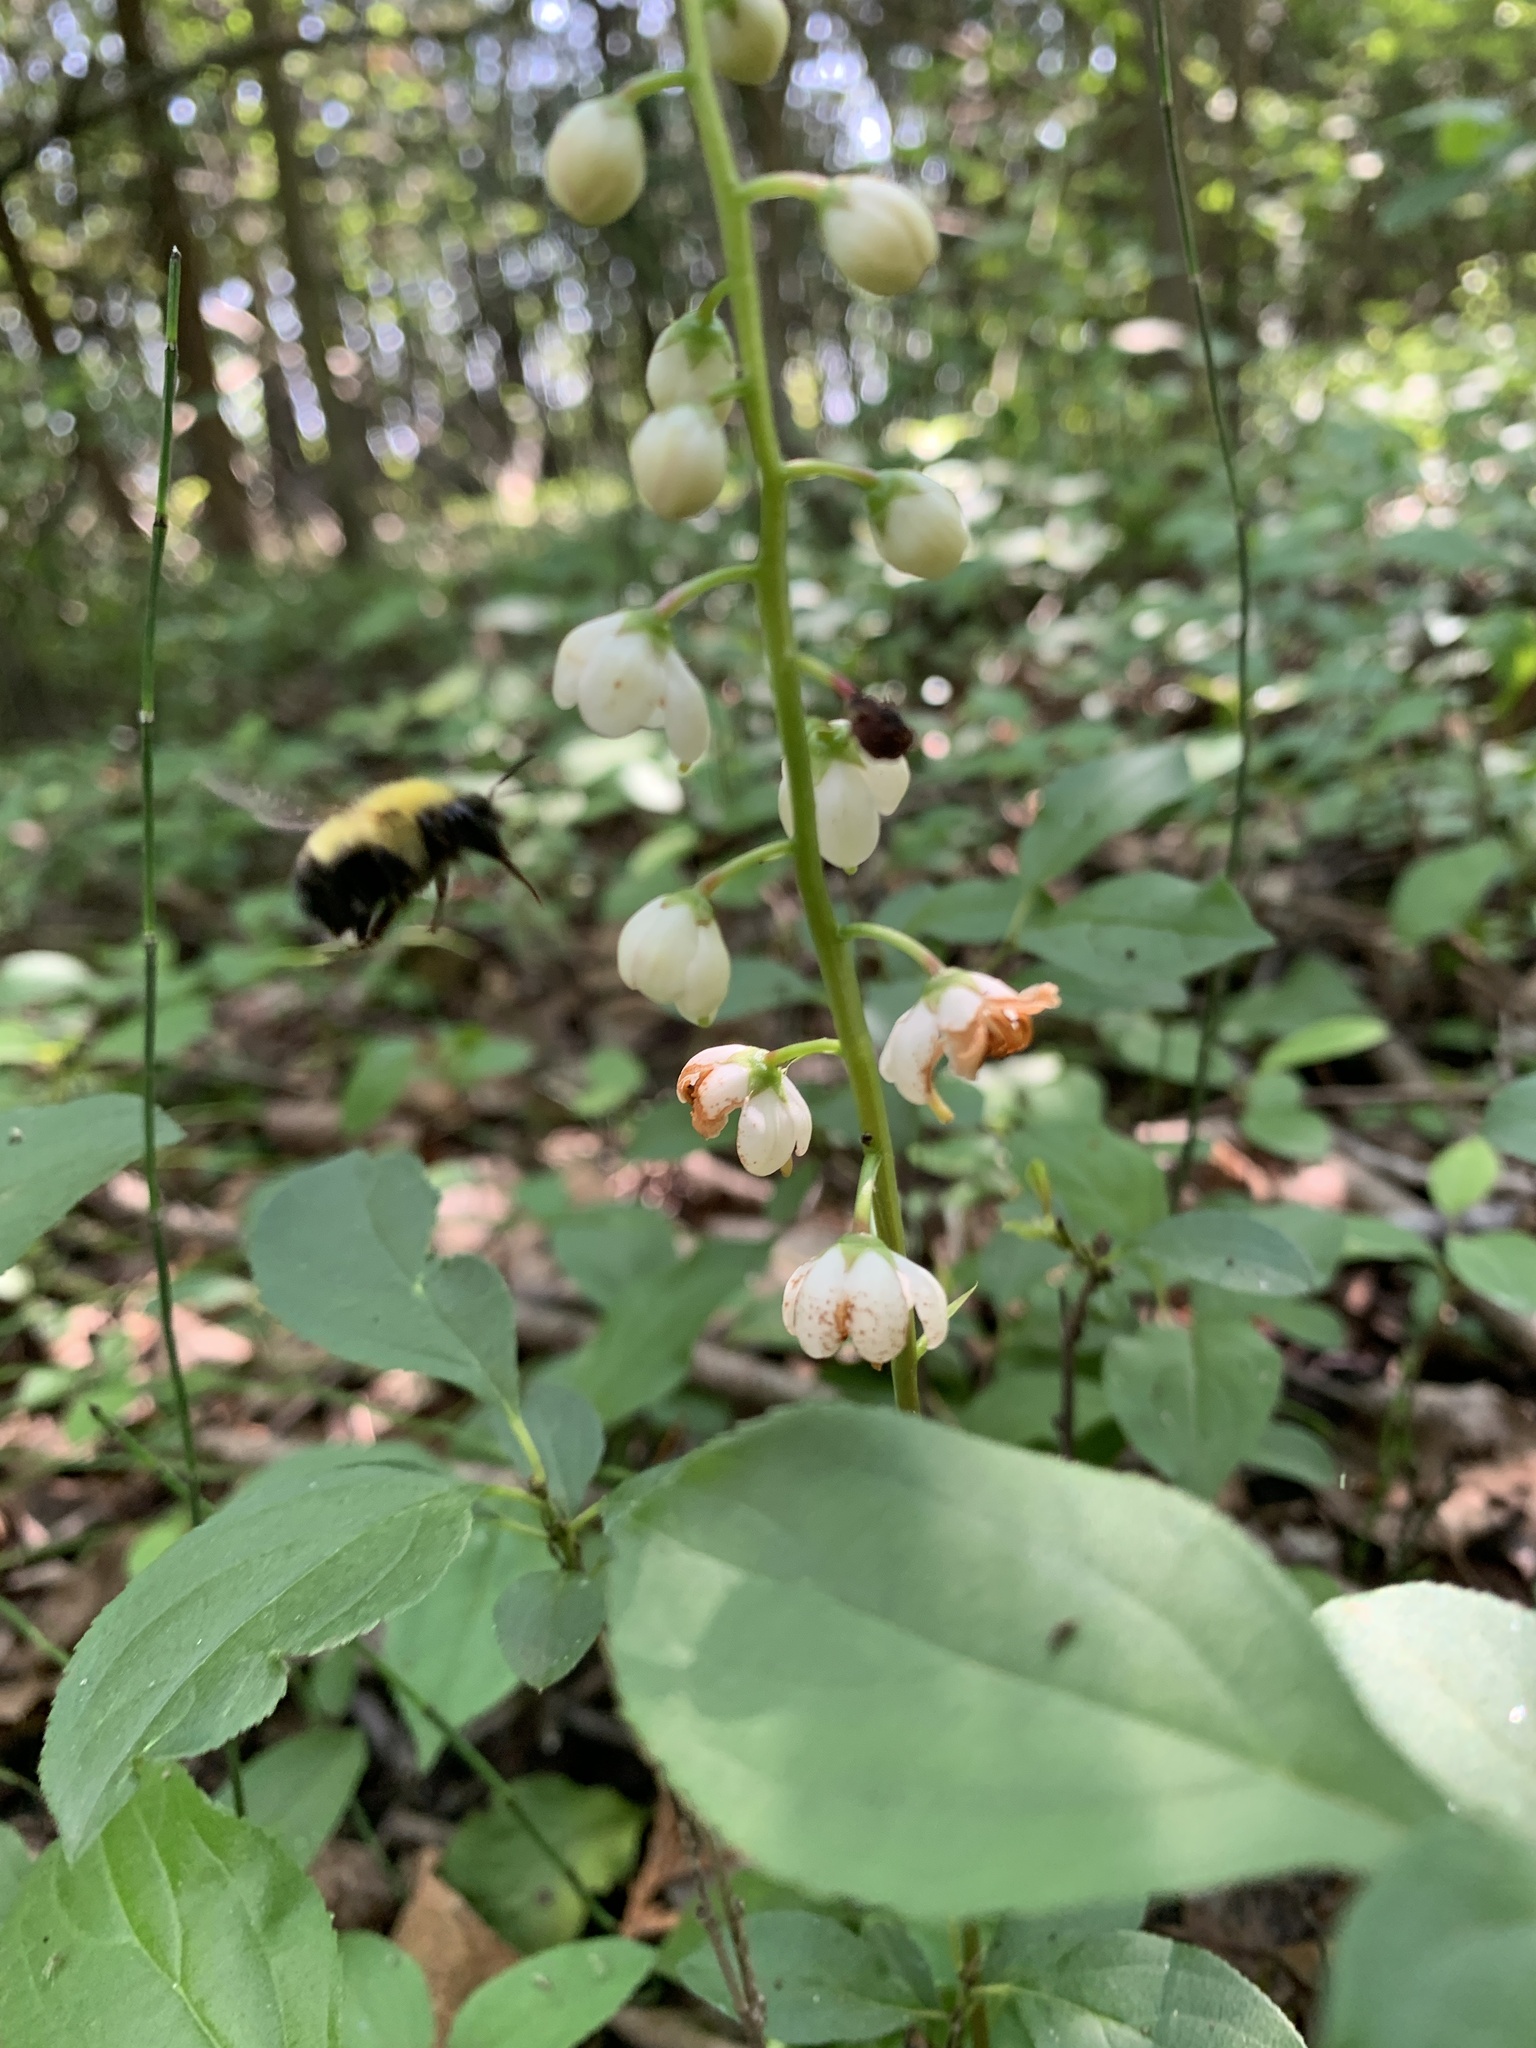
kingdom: Animalia
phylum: Arthropoda
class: Insecta
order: Hymenoptera
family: Apidae
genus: Bombus
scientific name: Bombus perplexus
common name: Confusing bumble bee
